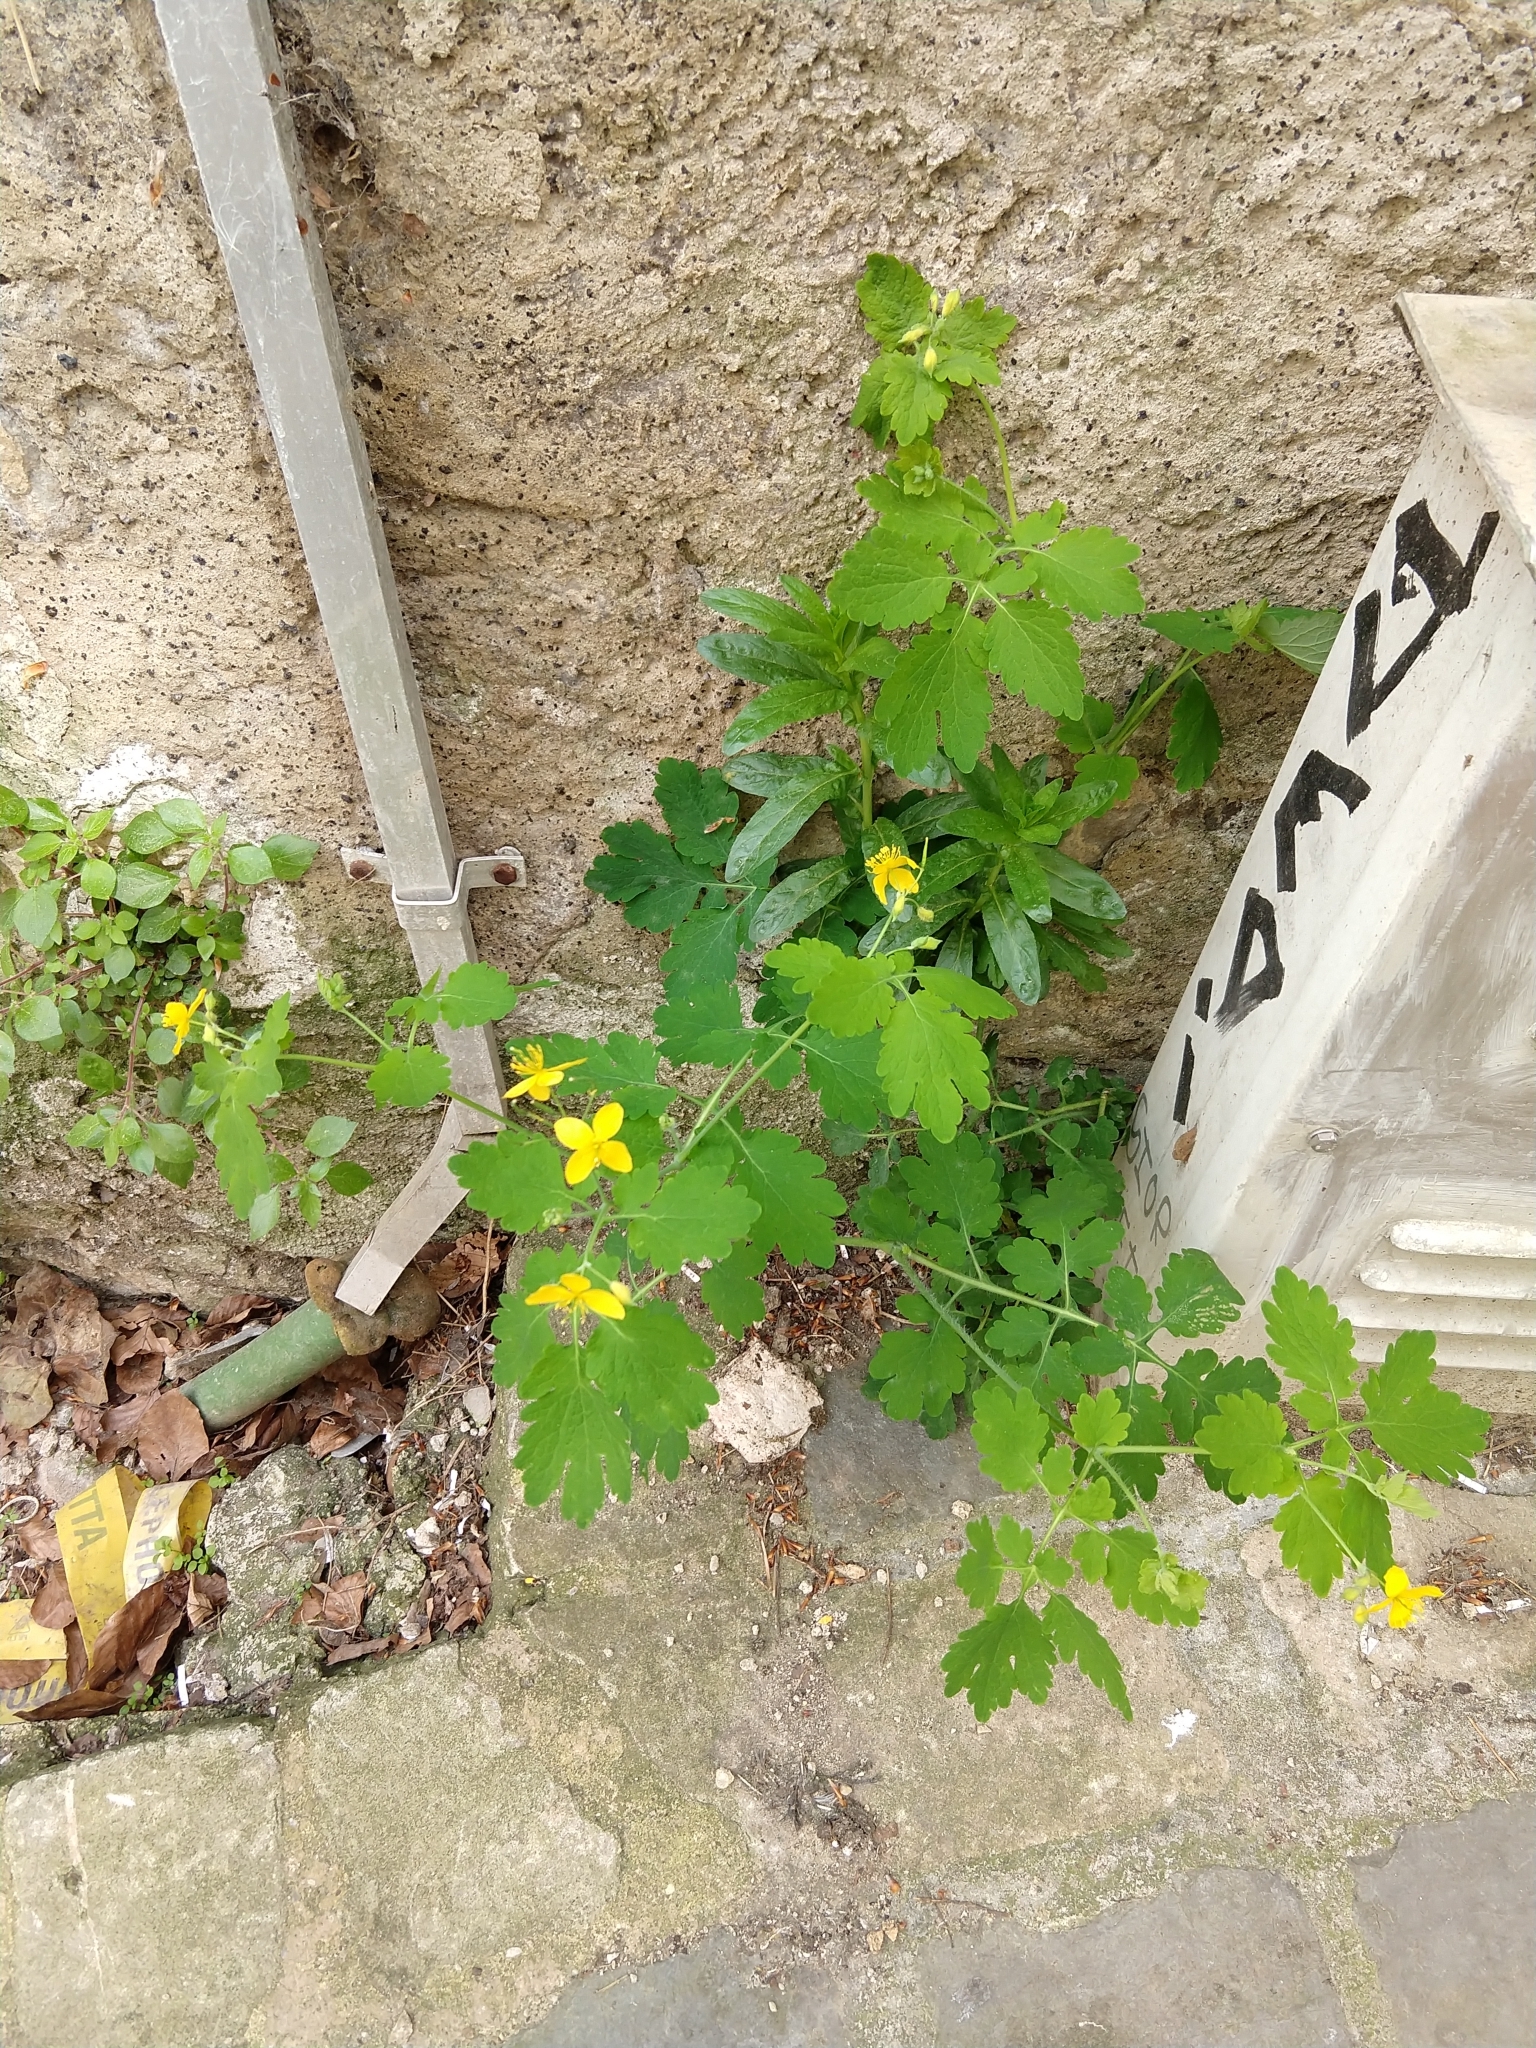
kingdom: Plantae
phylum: Tracheophyta
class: Magnoliopsida
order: Ranunculales
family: Papaveraceae
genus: Chelidonium
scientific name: Chelidonium majus
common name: Greater celandine
